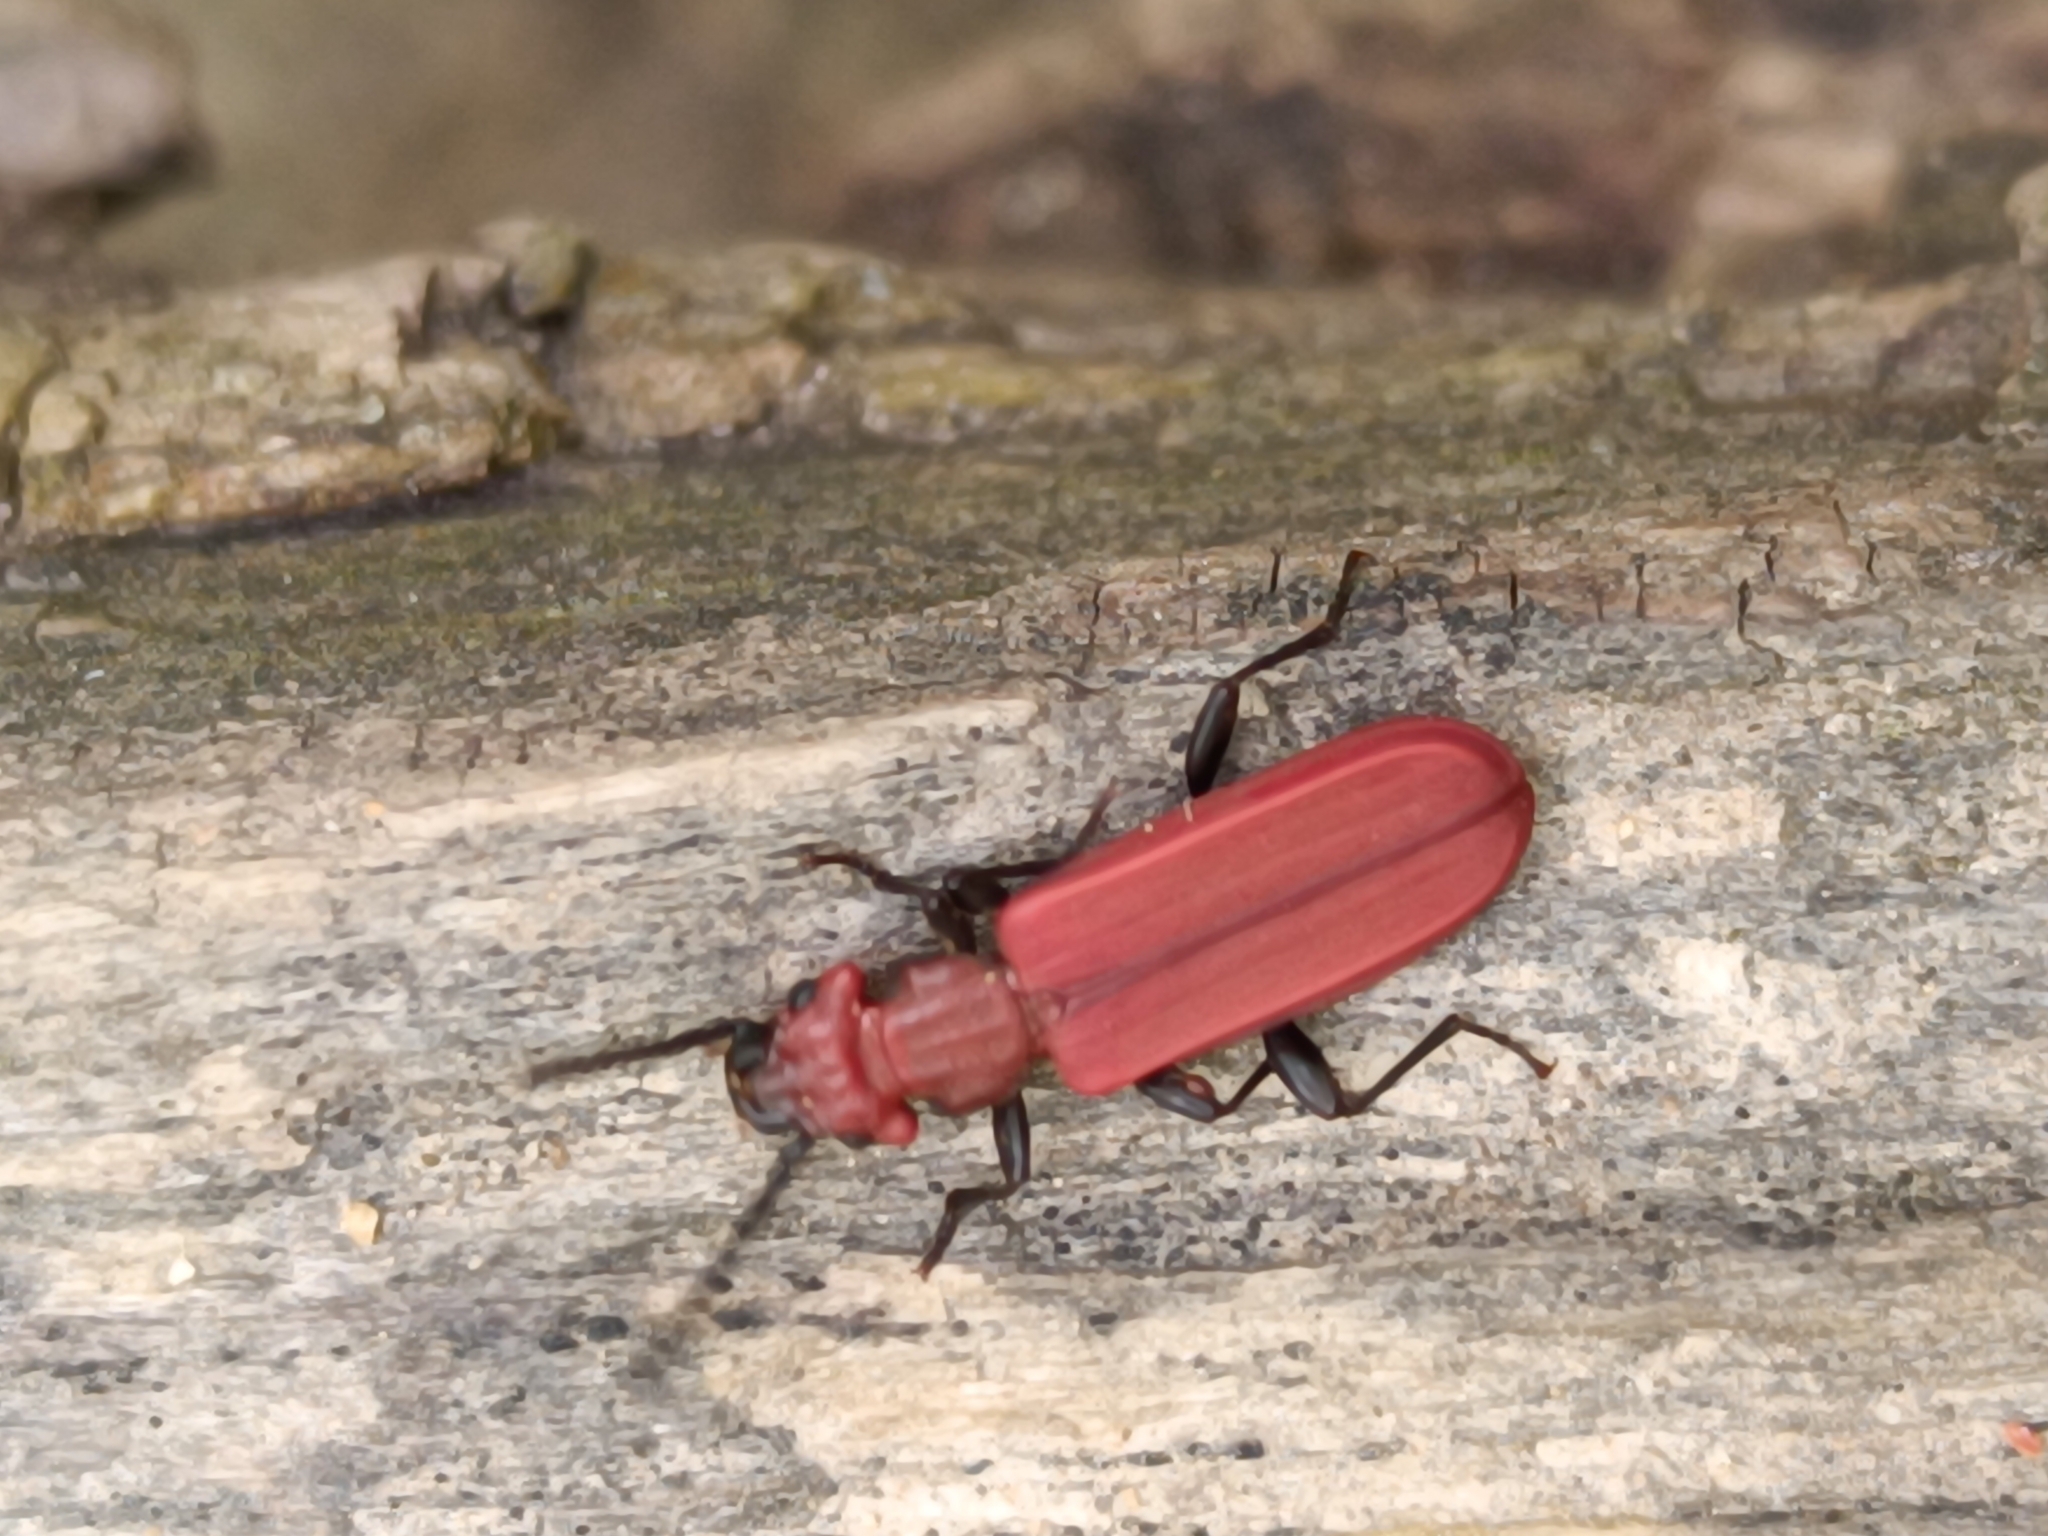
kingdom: Animalia
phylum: Arthropoda
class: Insecta
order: Coleoptera
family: Cucujidae
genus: Cucujus
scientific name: Cucujus cinnaberinus
